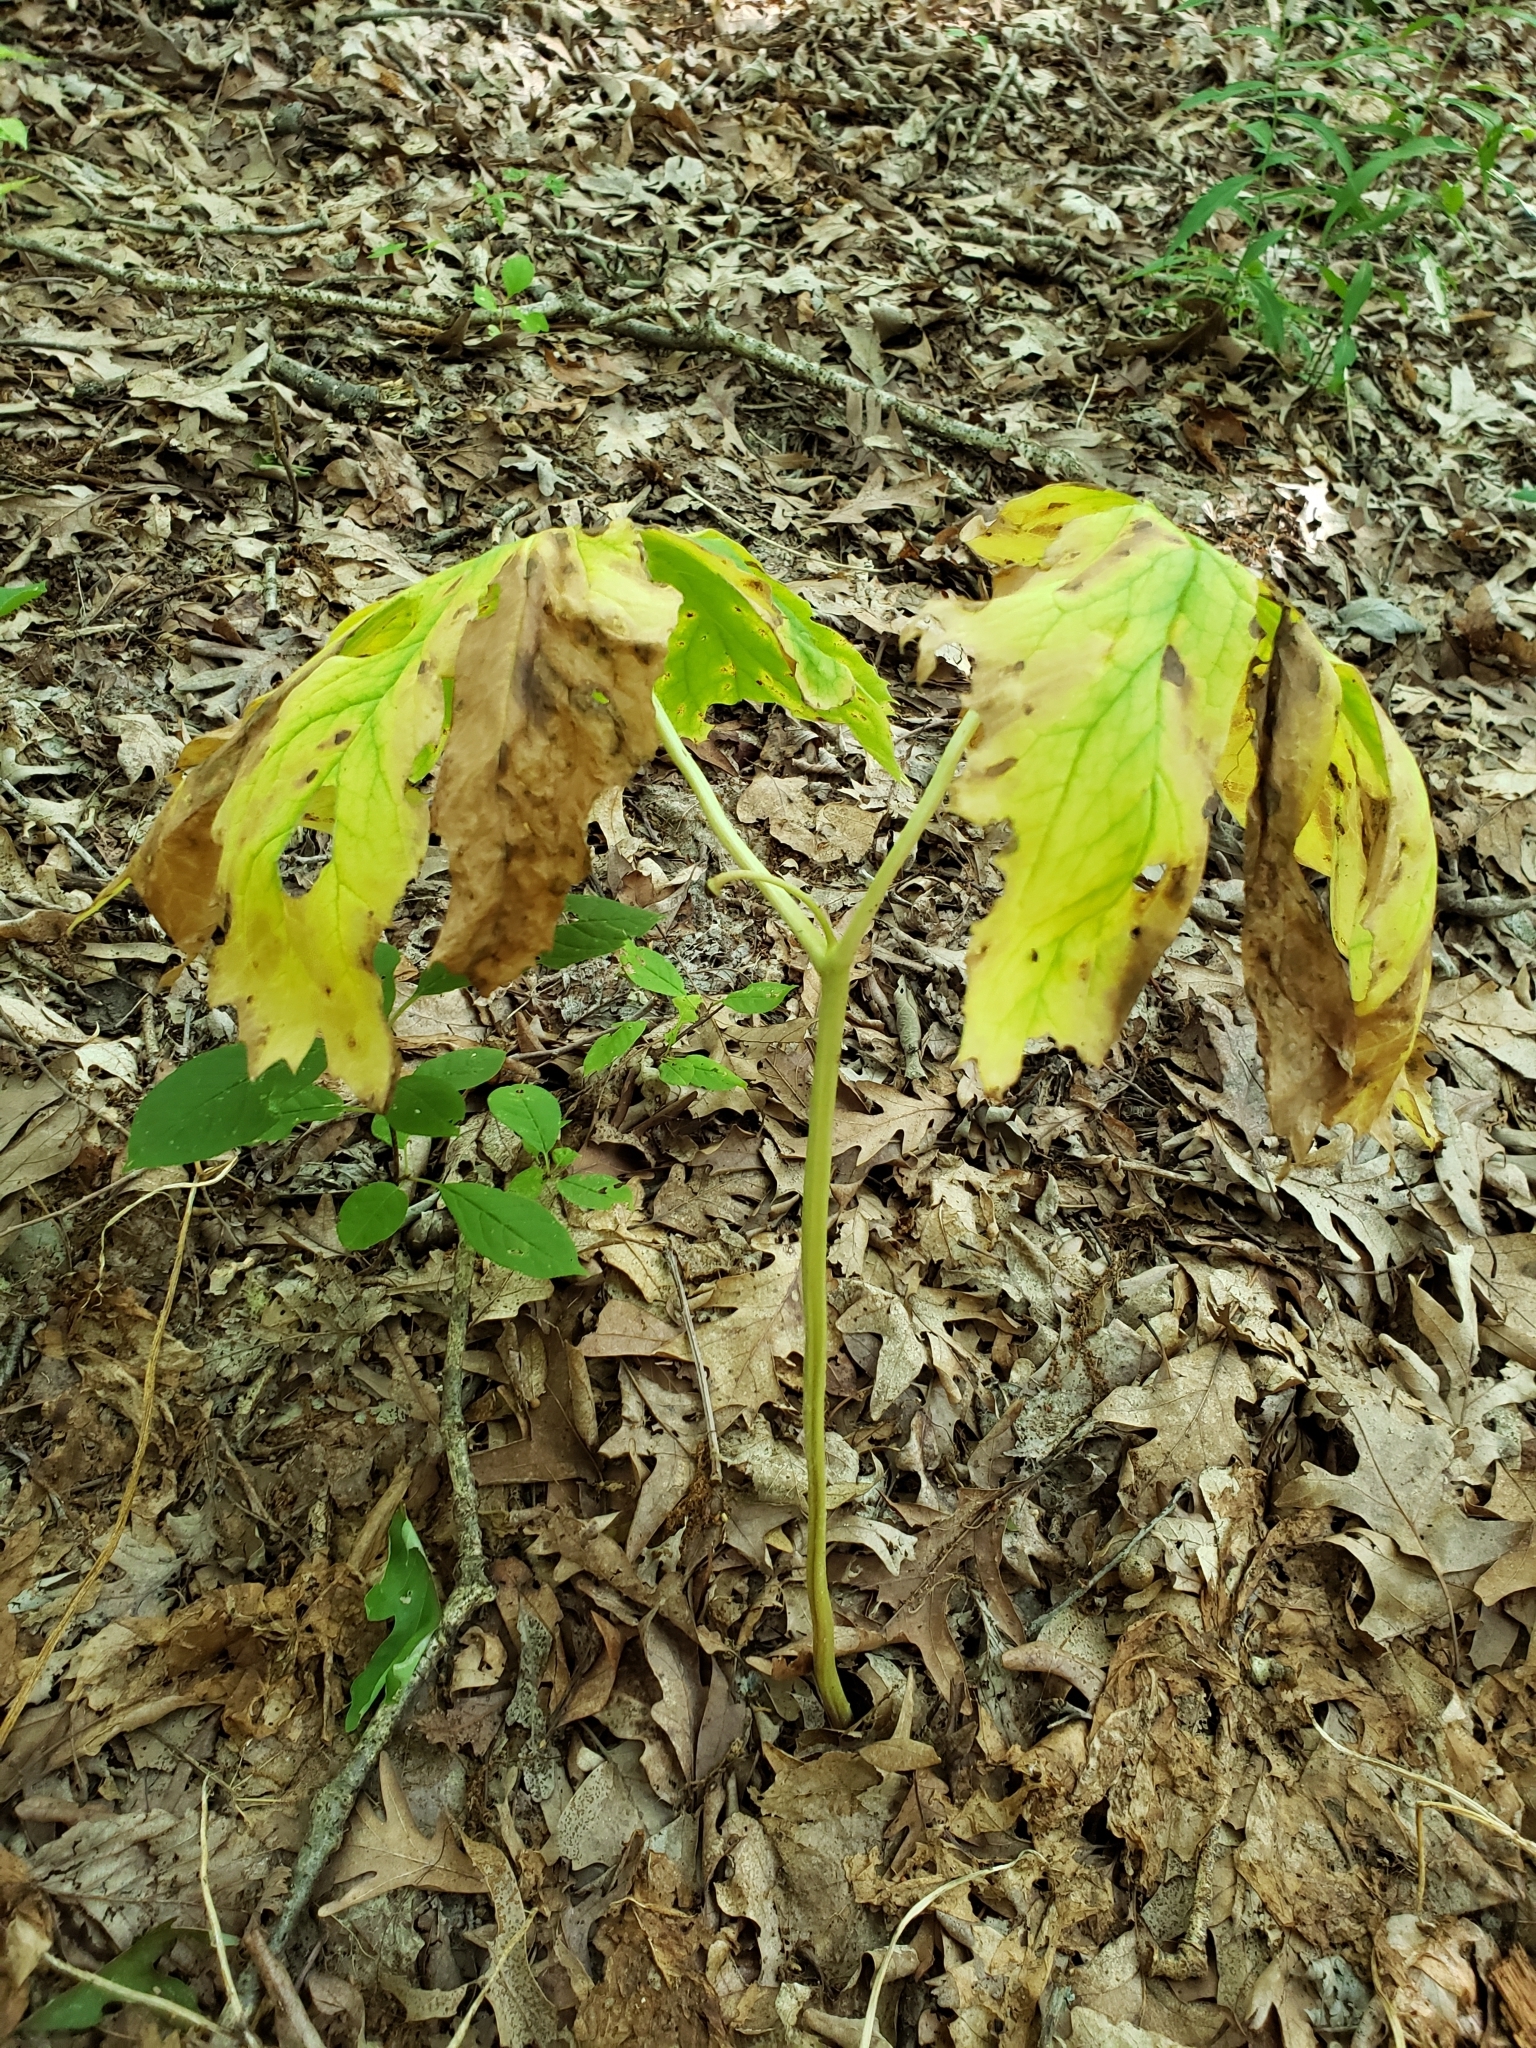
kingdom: Plantae
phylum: Tracheophyta
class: Magnoliopsida
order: Ranunculales
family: Berberidaceae
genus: Podophyllum
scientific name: Podophyllum peltatum
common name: Wild mandrake
